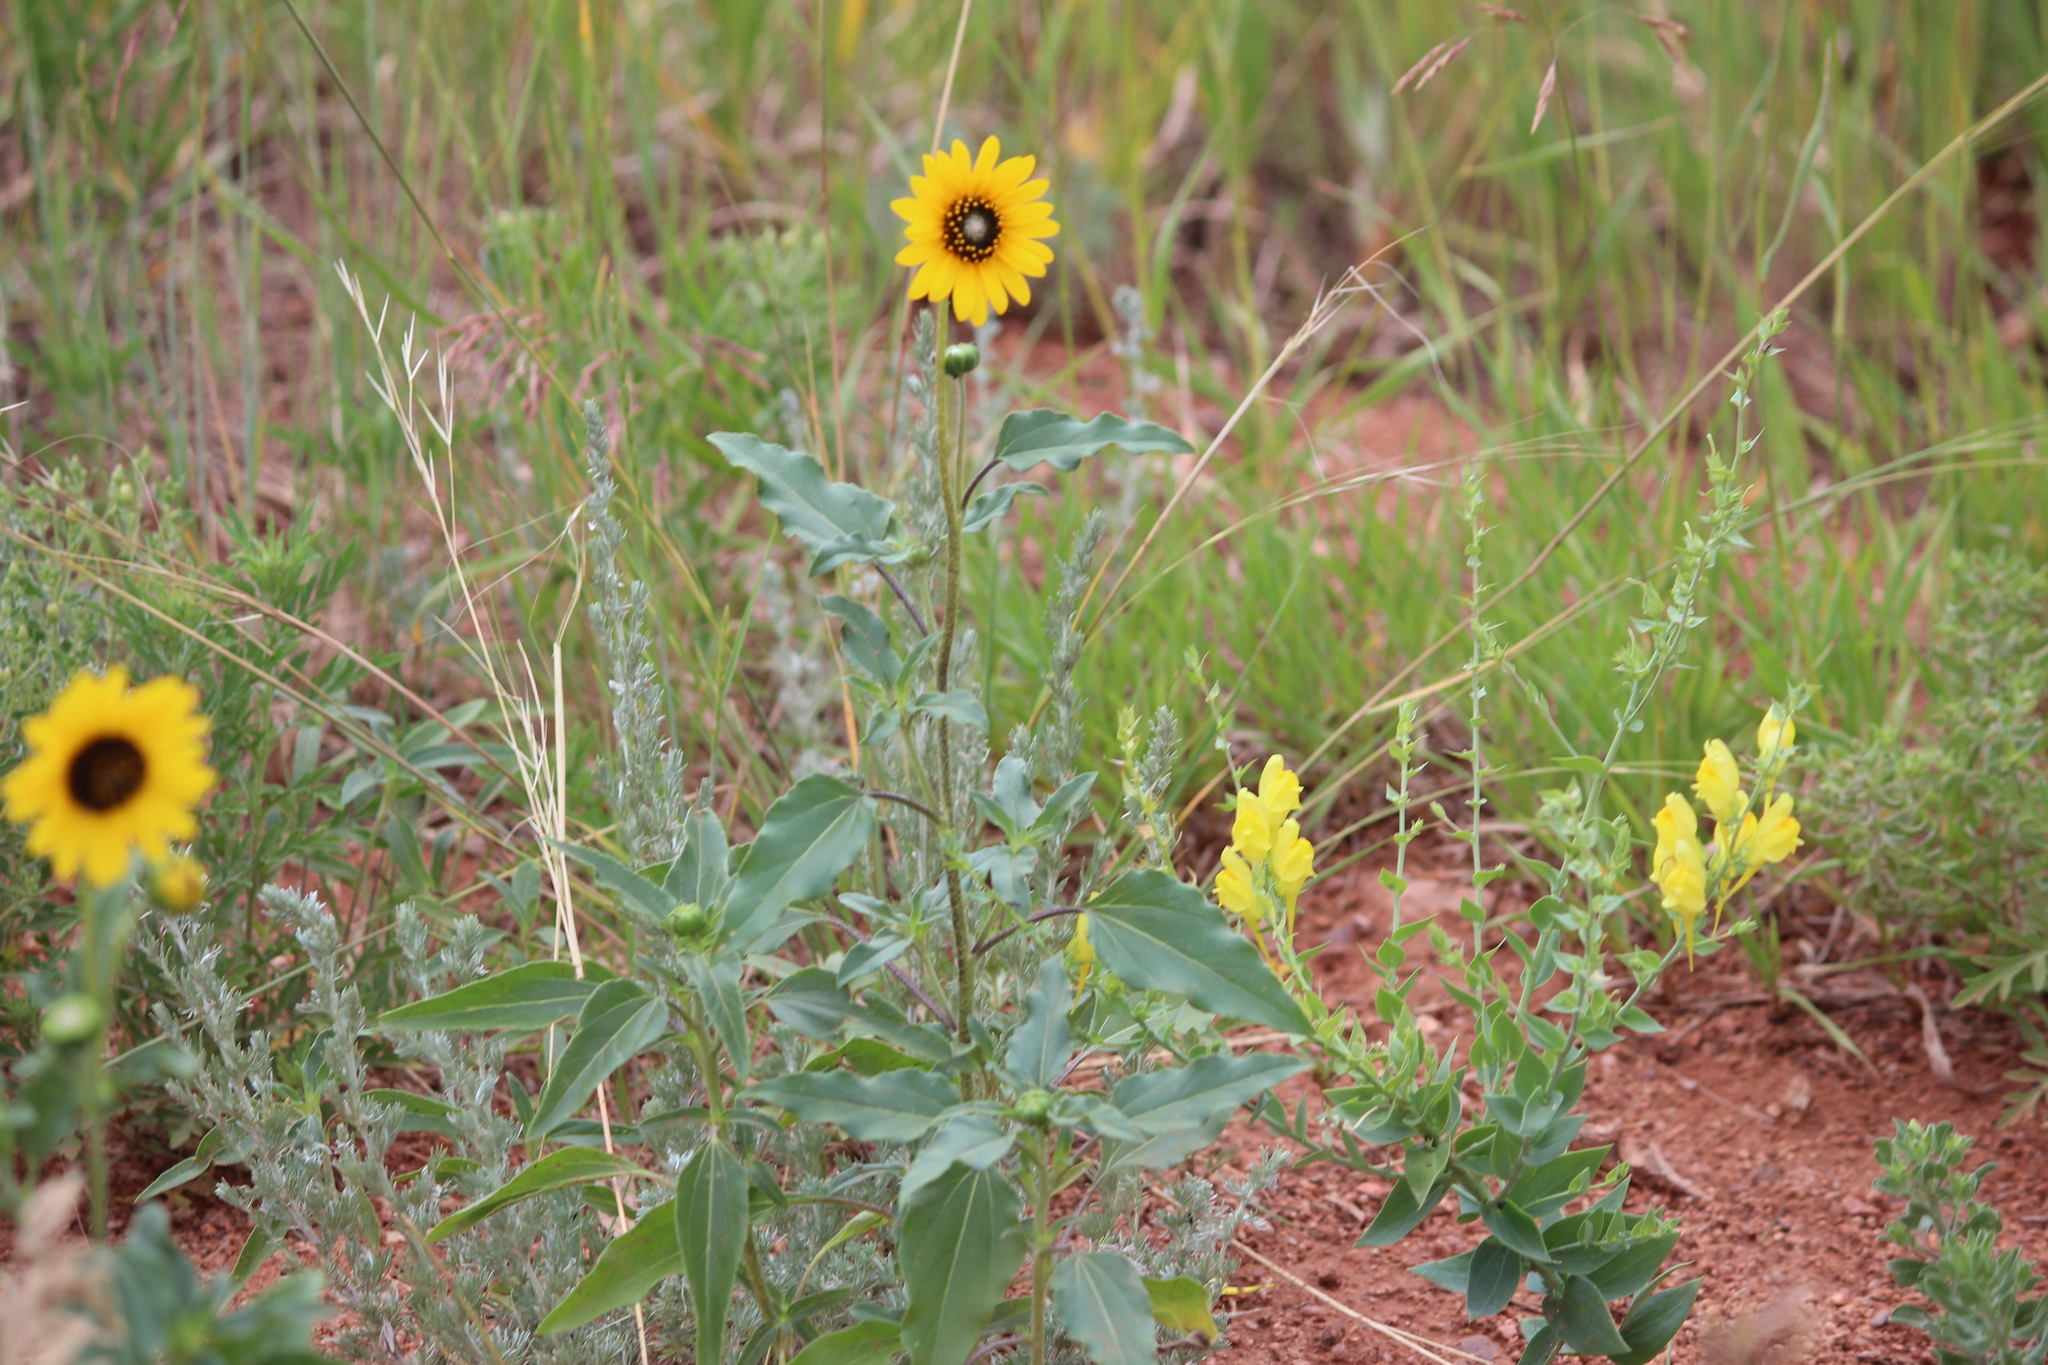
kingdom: Plantae
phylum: Tracheophyta
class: Magnoliopsida
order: Asterales
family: Asteraceae
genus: Helianthus
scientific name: Helianthus petiolaris
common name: Lesser sunflower
